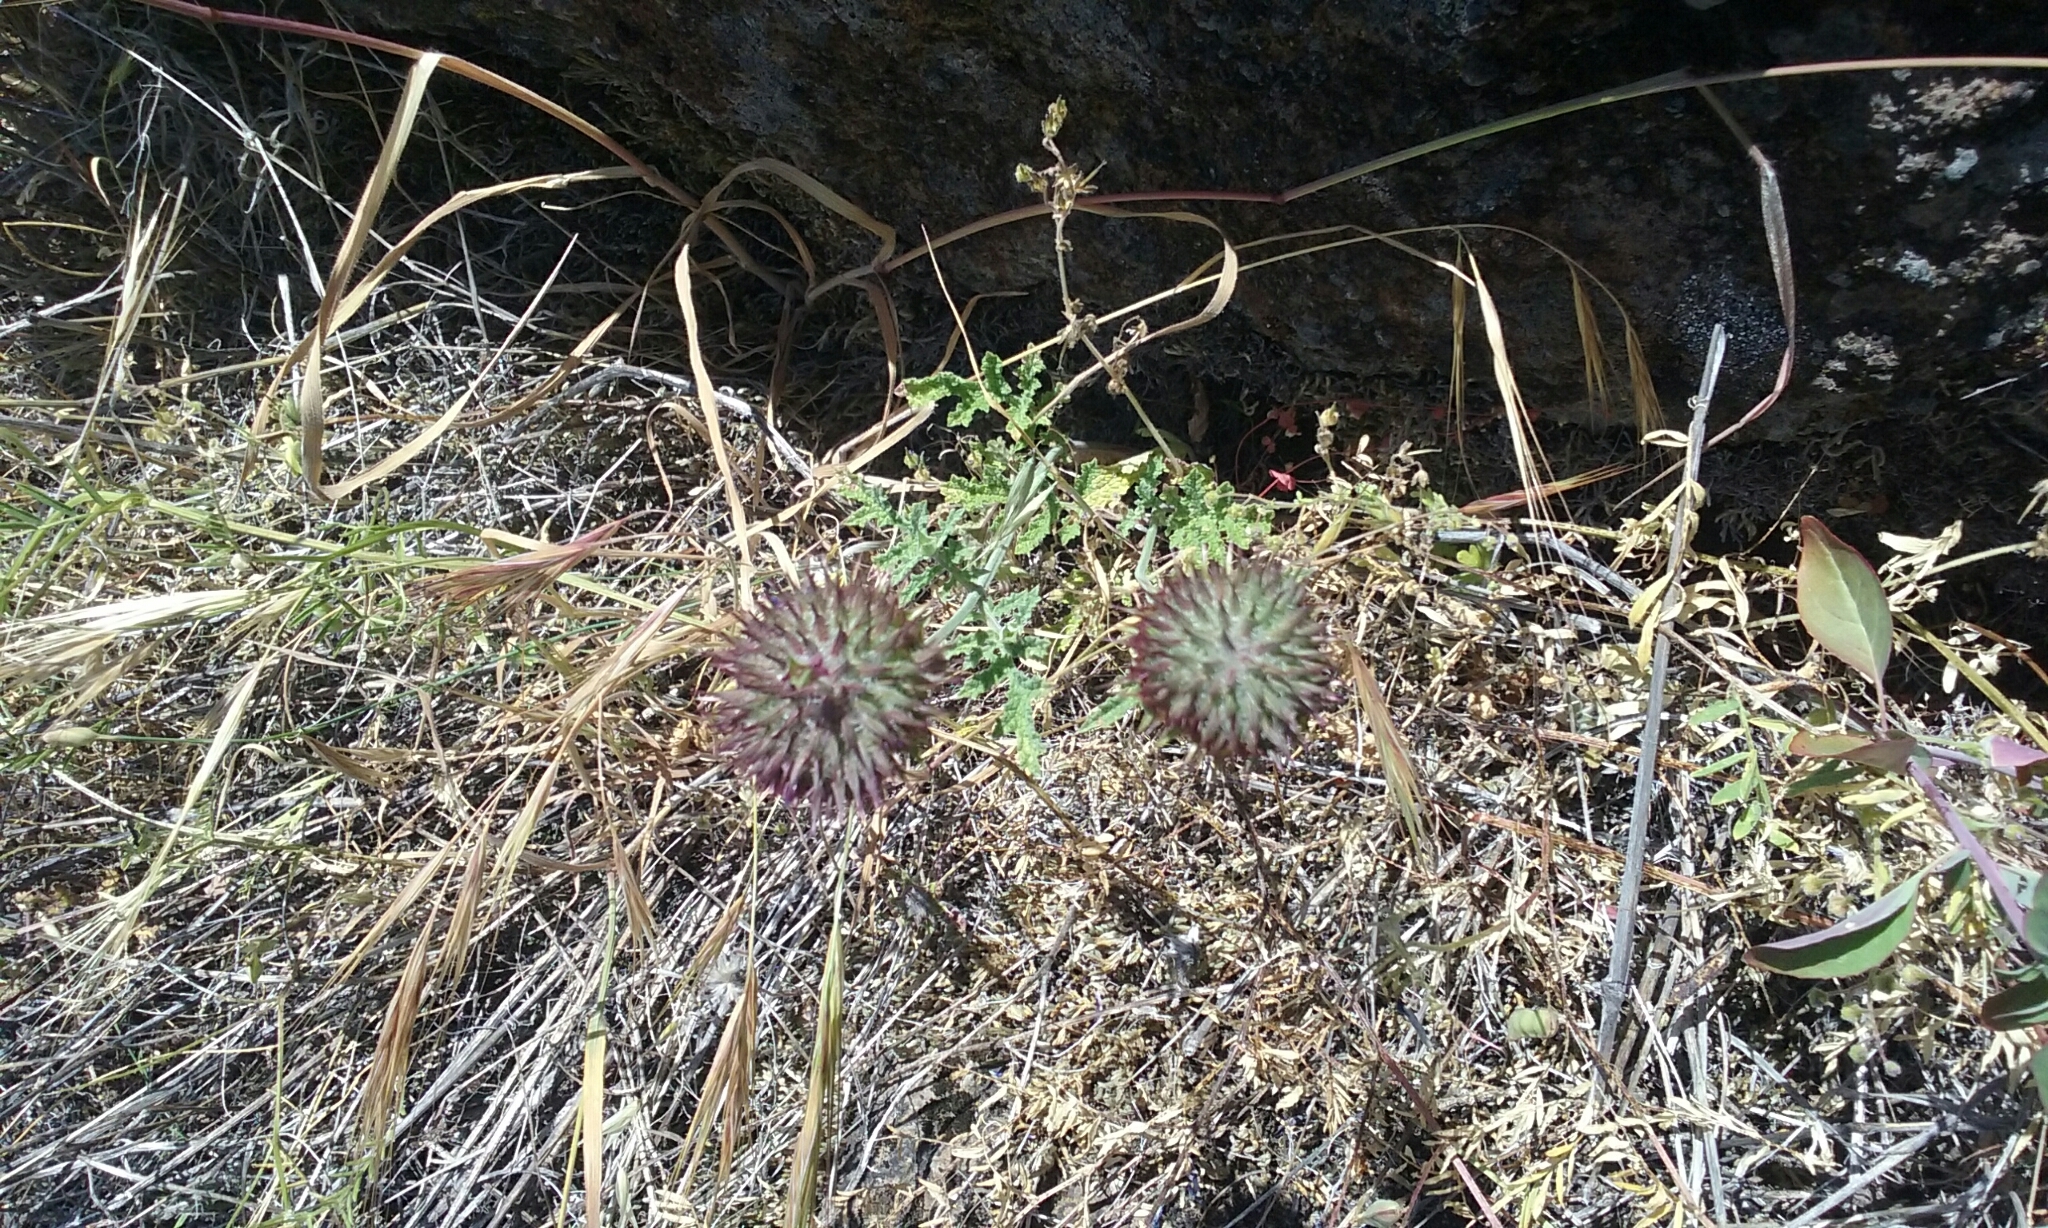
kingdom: Plantae
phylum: Tracheophyta
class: Magnoliopsida
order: Lamiales
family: Lamiaceae
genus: Salvia
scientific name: Salvia columbariae
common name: Chia
